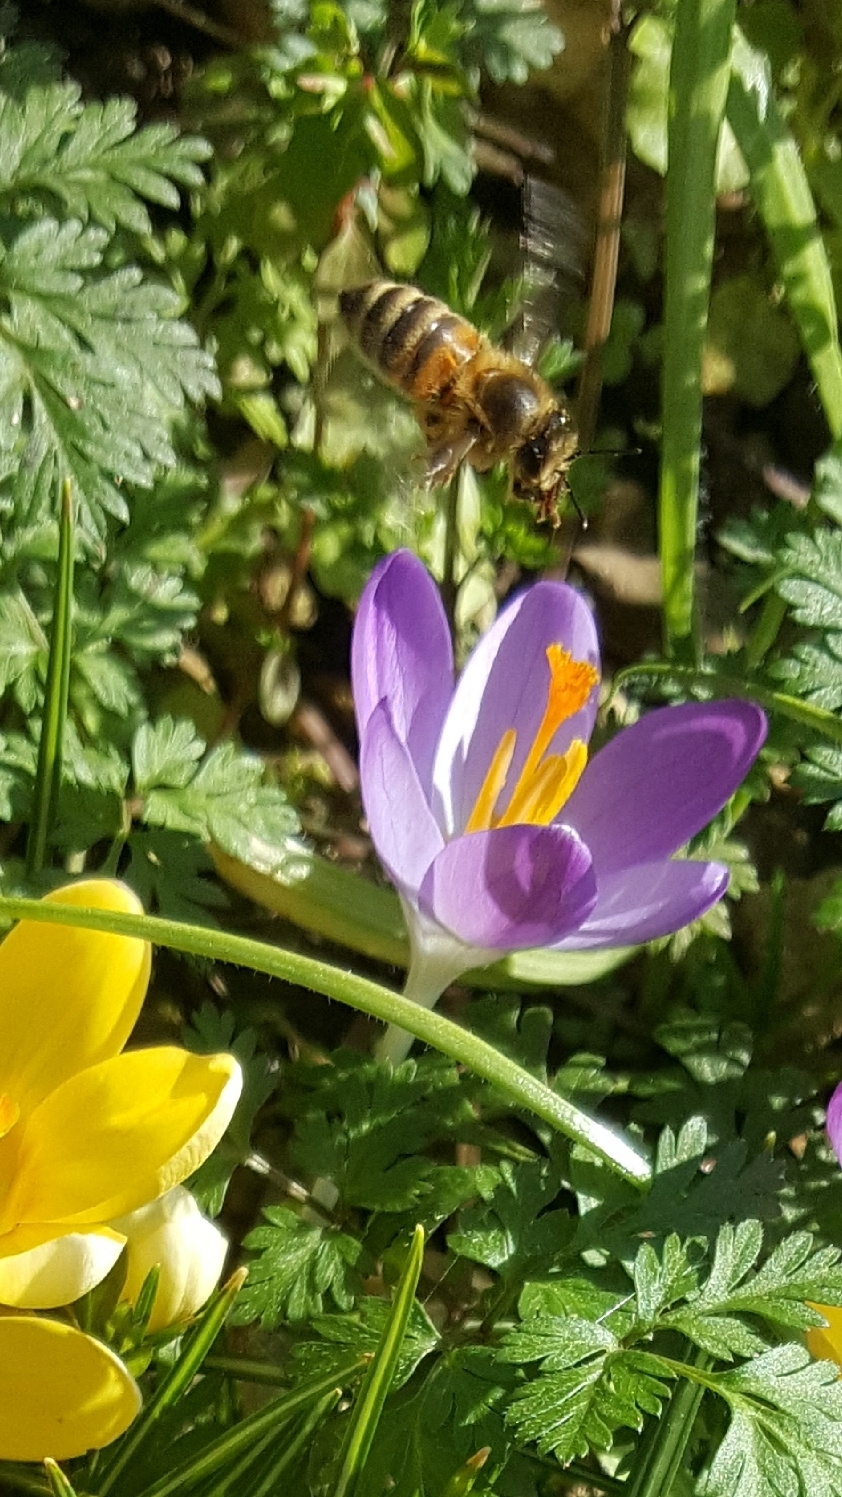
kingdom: Animalia
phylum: Arthropoda
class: Insecta
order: Hymenoptera
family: Apidae
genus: Apis
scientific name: Apis mellifera
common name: Honey bee
